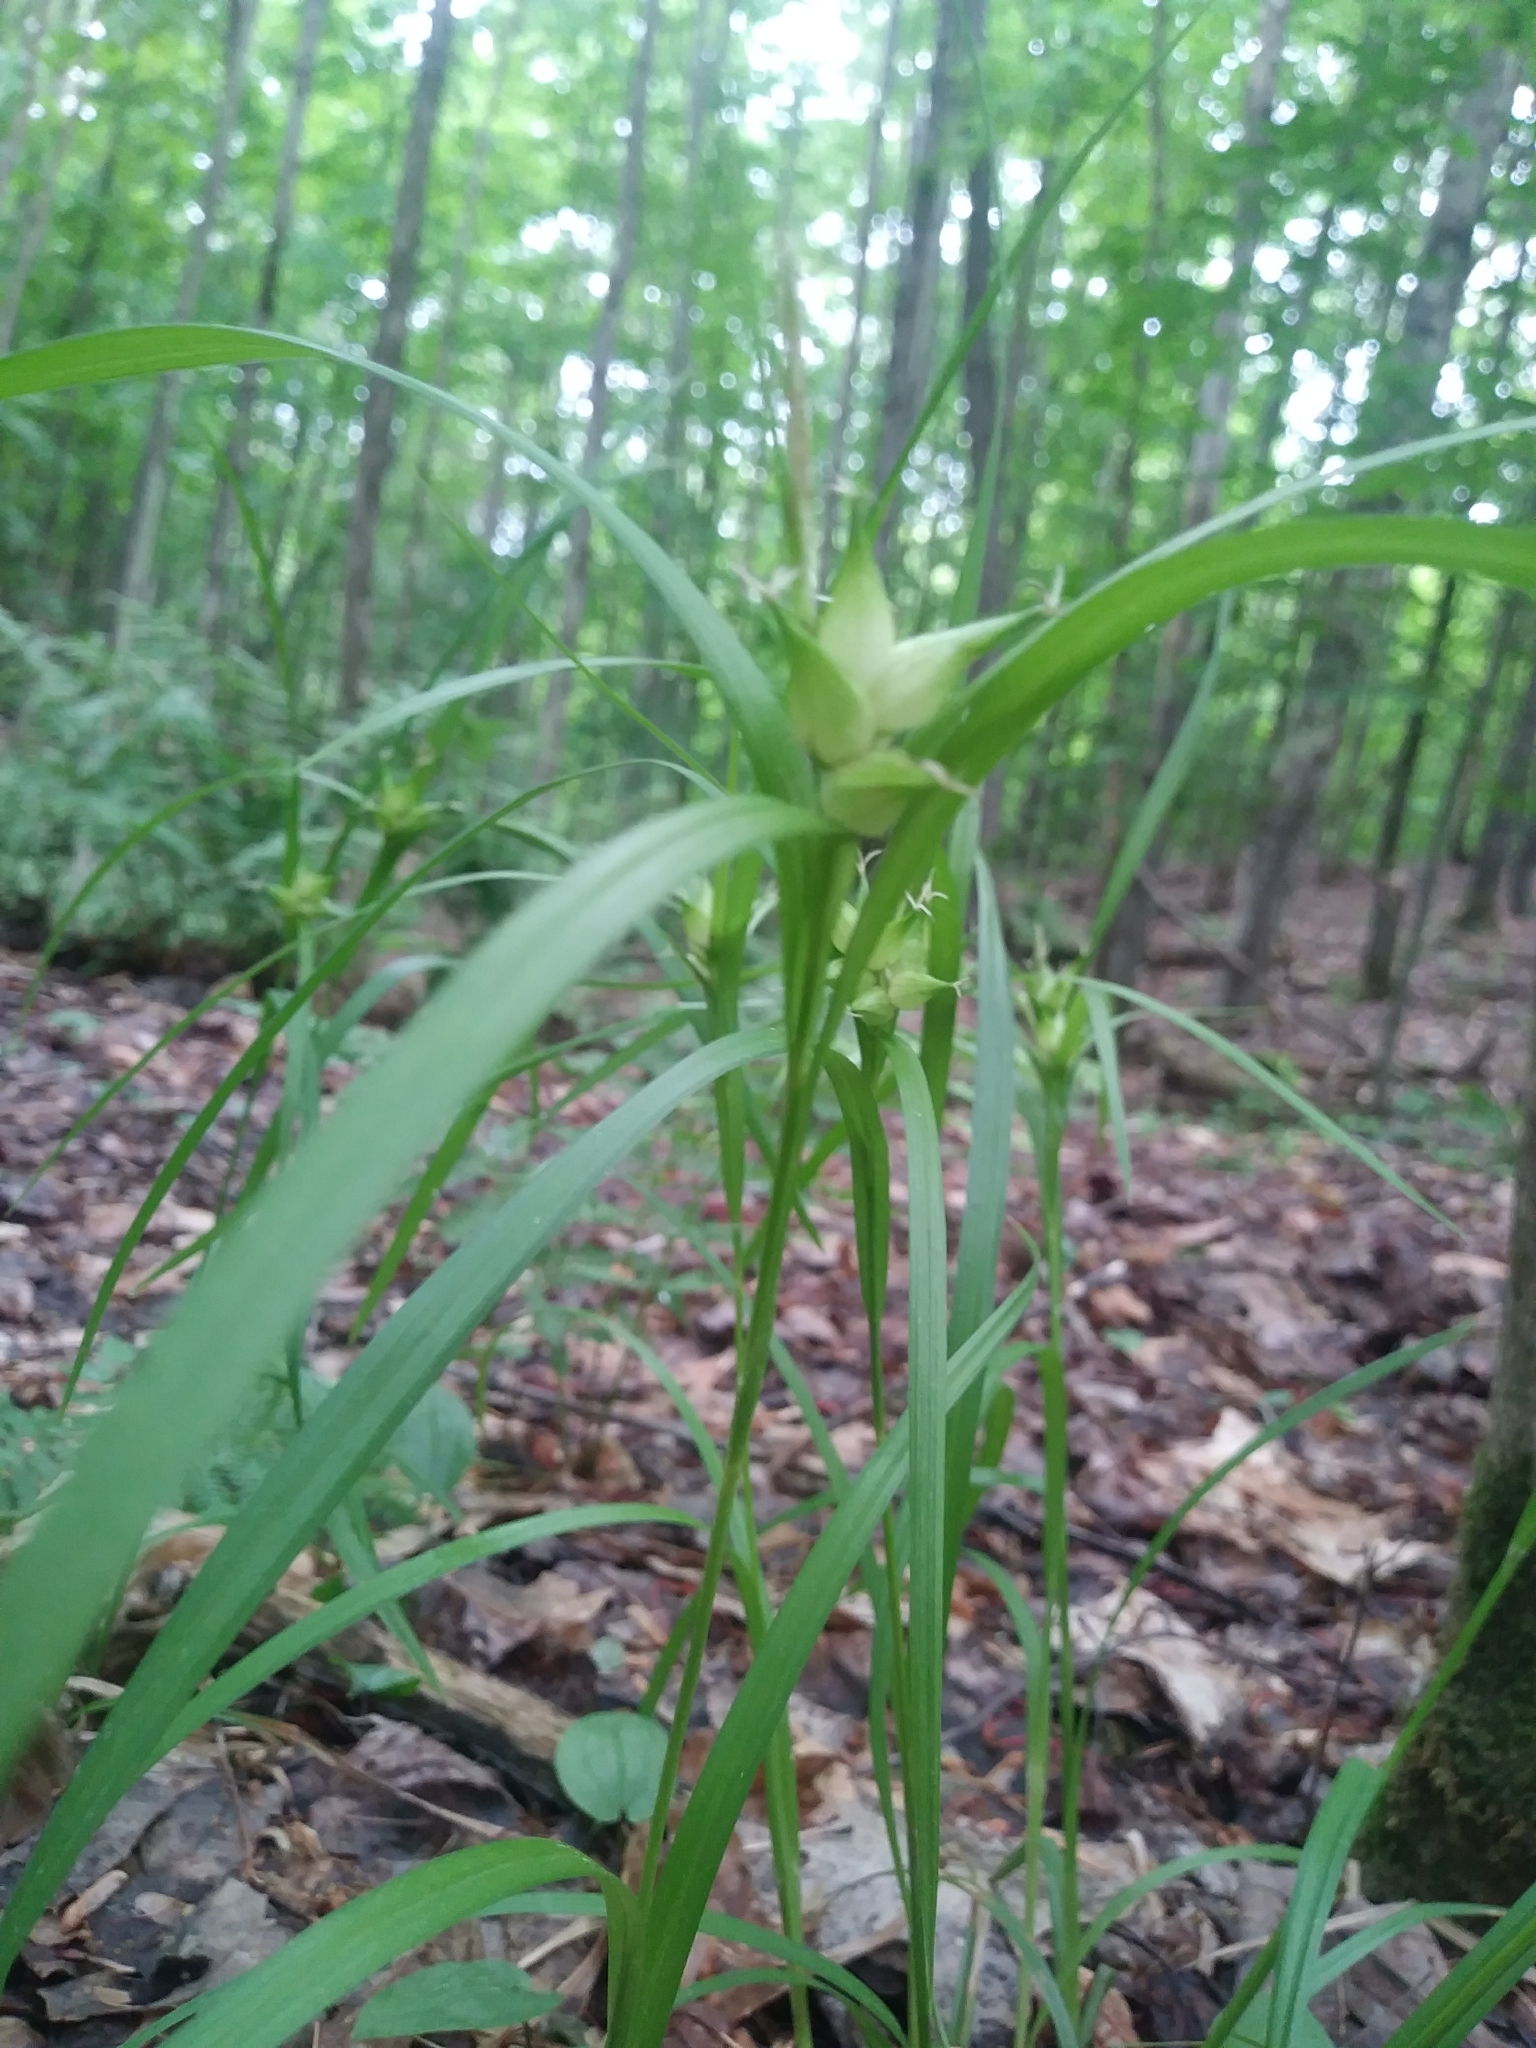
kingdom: Plantae
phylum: Tracheophyta
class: Liliopsida
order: Poales
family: Cyperaceae
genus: Carex
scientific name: Carex intumescens
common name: Greater bladder sedge
